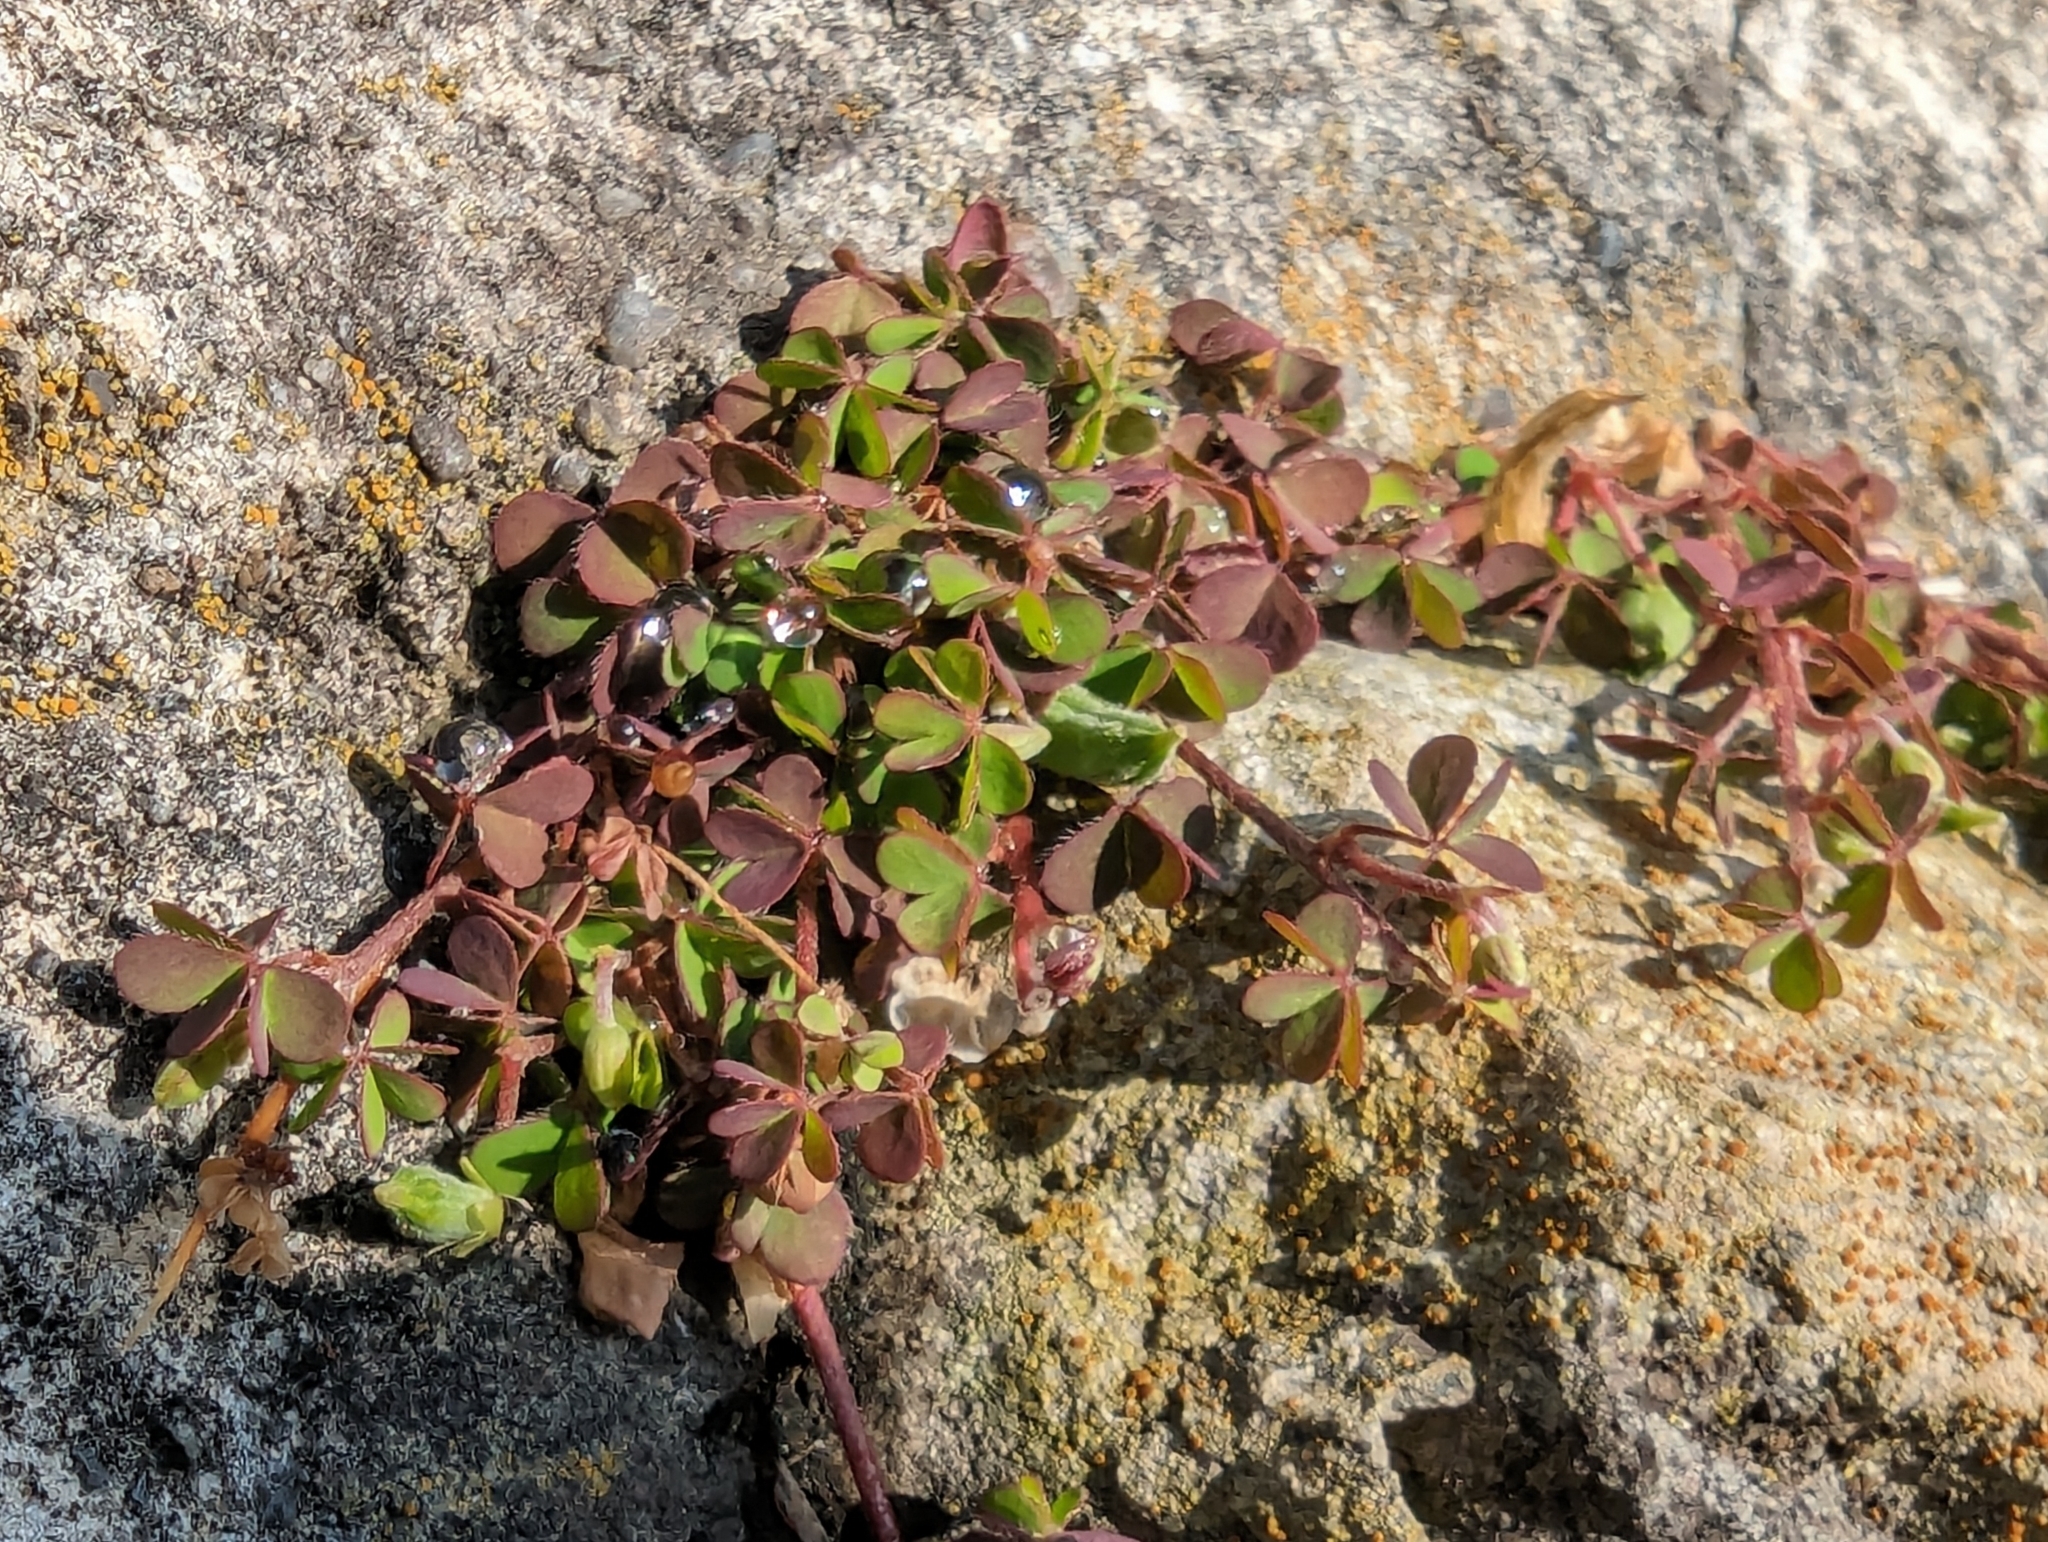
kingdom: Plantae
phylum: Tracheophyta
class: Magnoliopsida
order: Oxalidales
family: Oxalidaceae
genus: Oxalis
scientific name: Oxalis corniculata
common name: Procumbent yellow-sorrel
